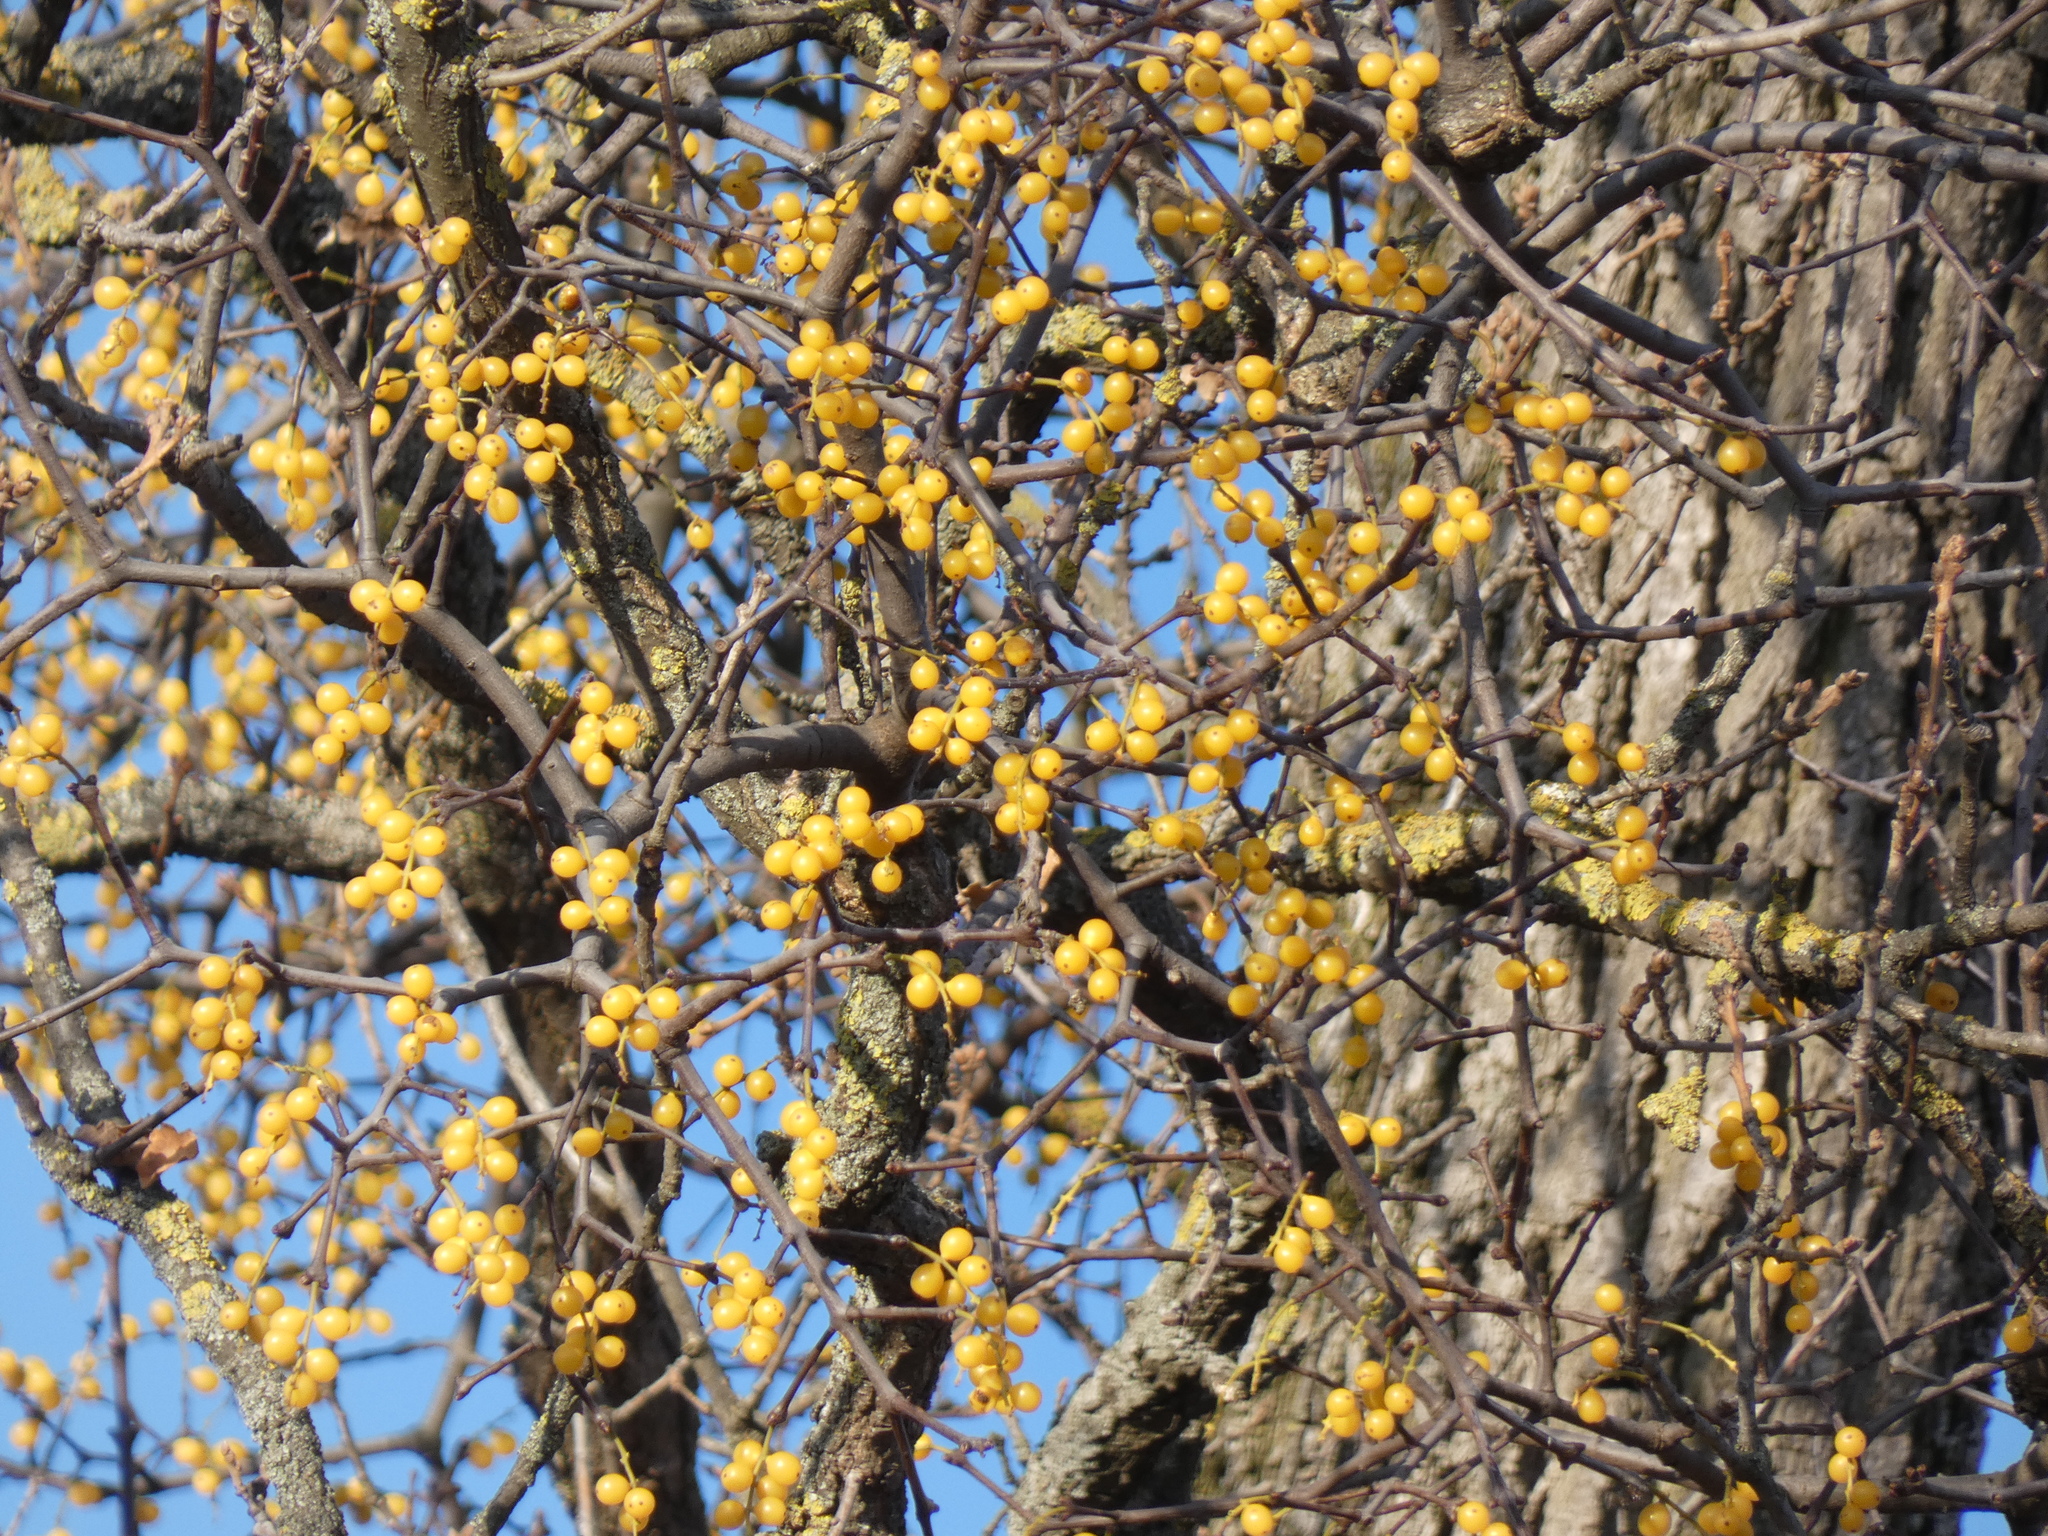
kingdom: Plantae
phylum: Tracheophyta
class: Magnoliopsida
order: Santalales
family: Loranthaceae
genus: Loranthus
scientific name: Loranthus europaeus
